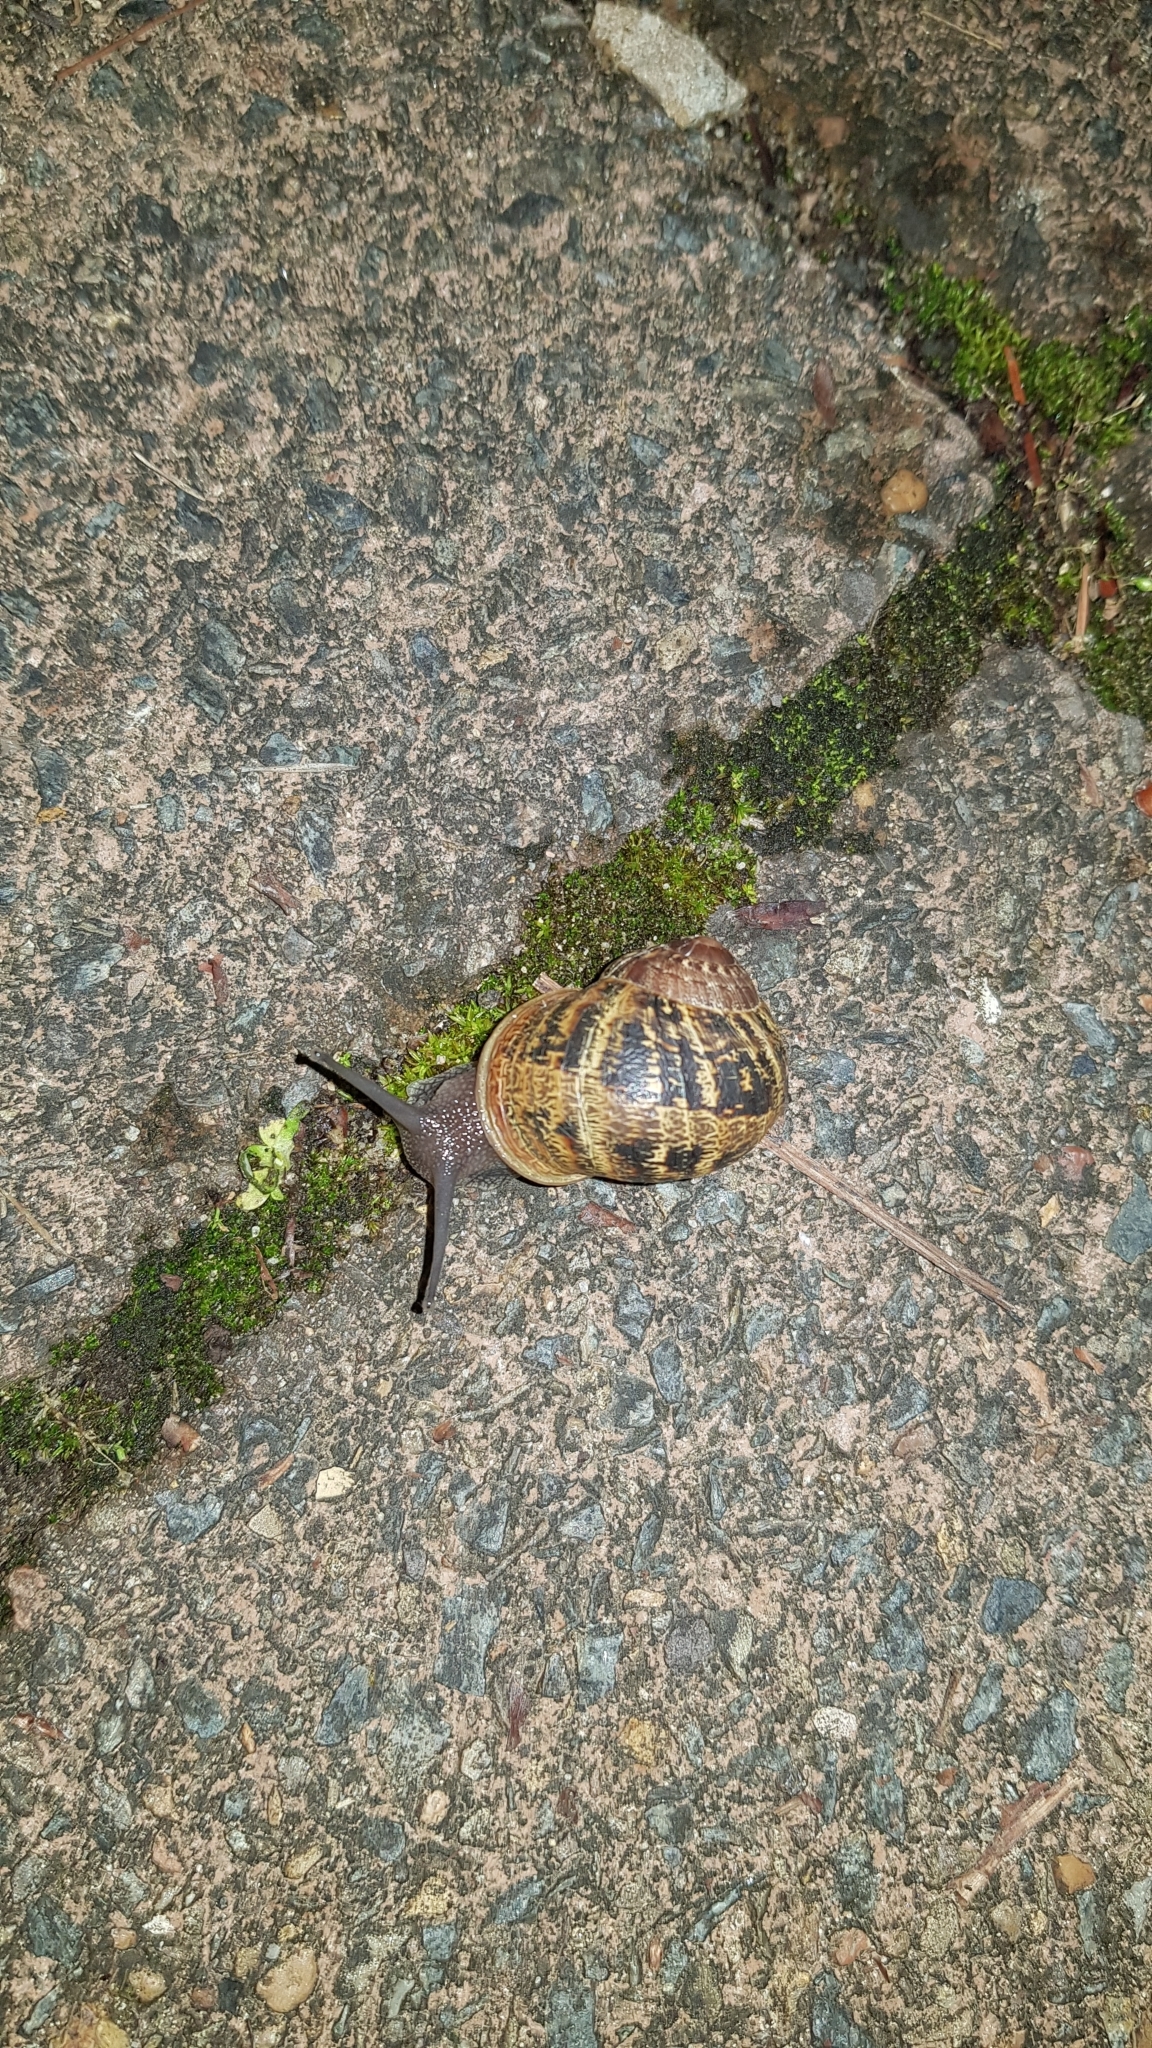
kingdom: Animalia
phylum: Mollusca
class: Gastropoda
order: Stylommatophora
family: Helicidae
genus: Cornu
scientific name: Cornu aspersum
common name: Brown garden snail
